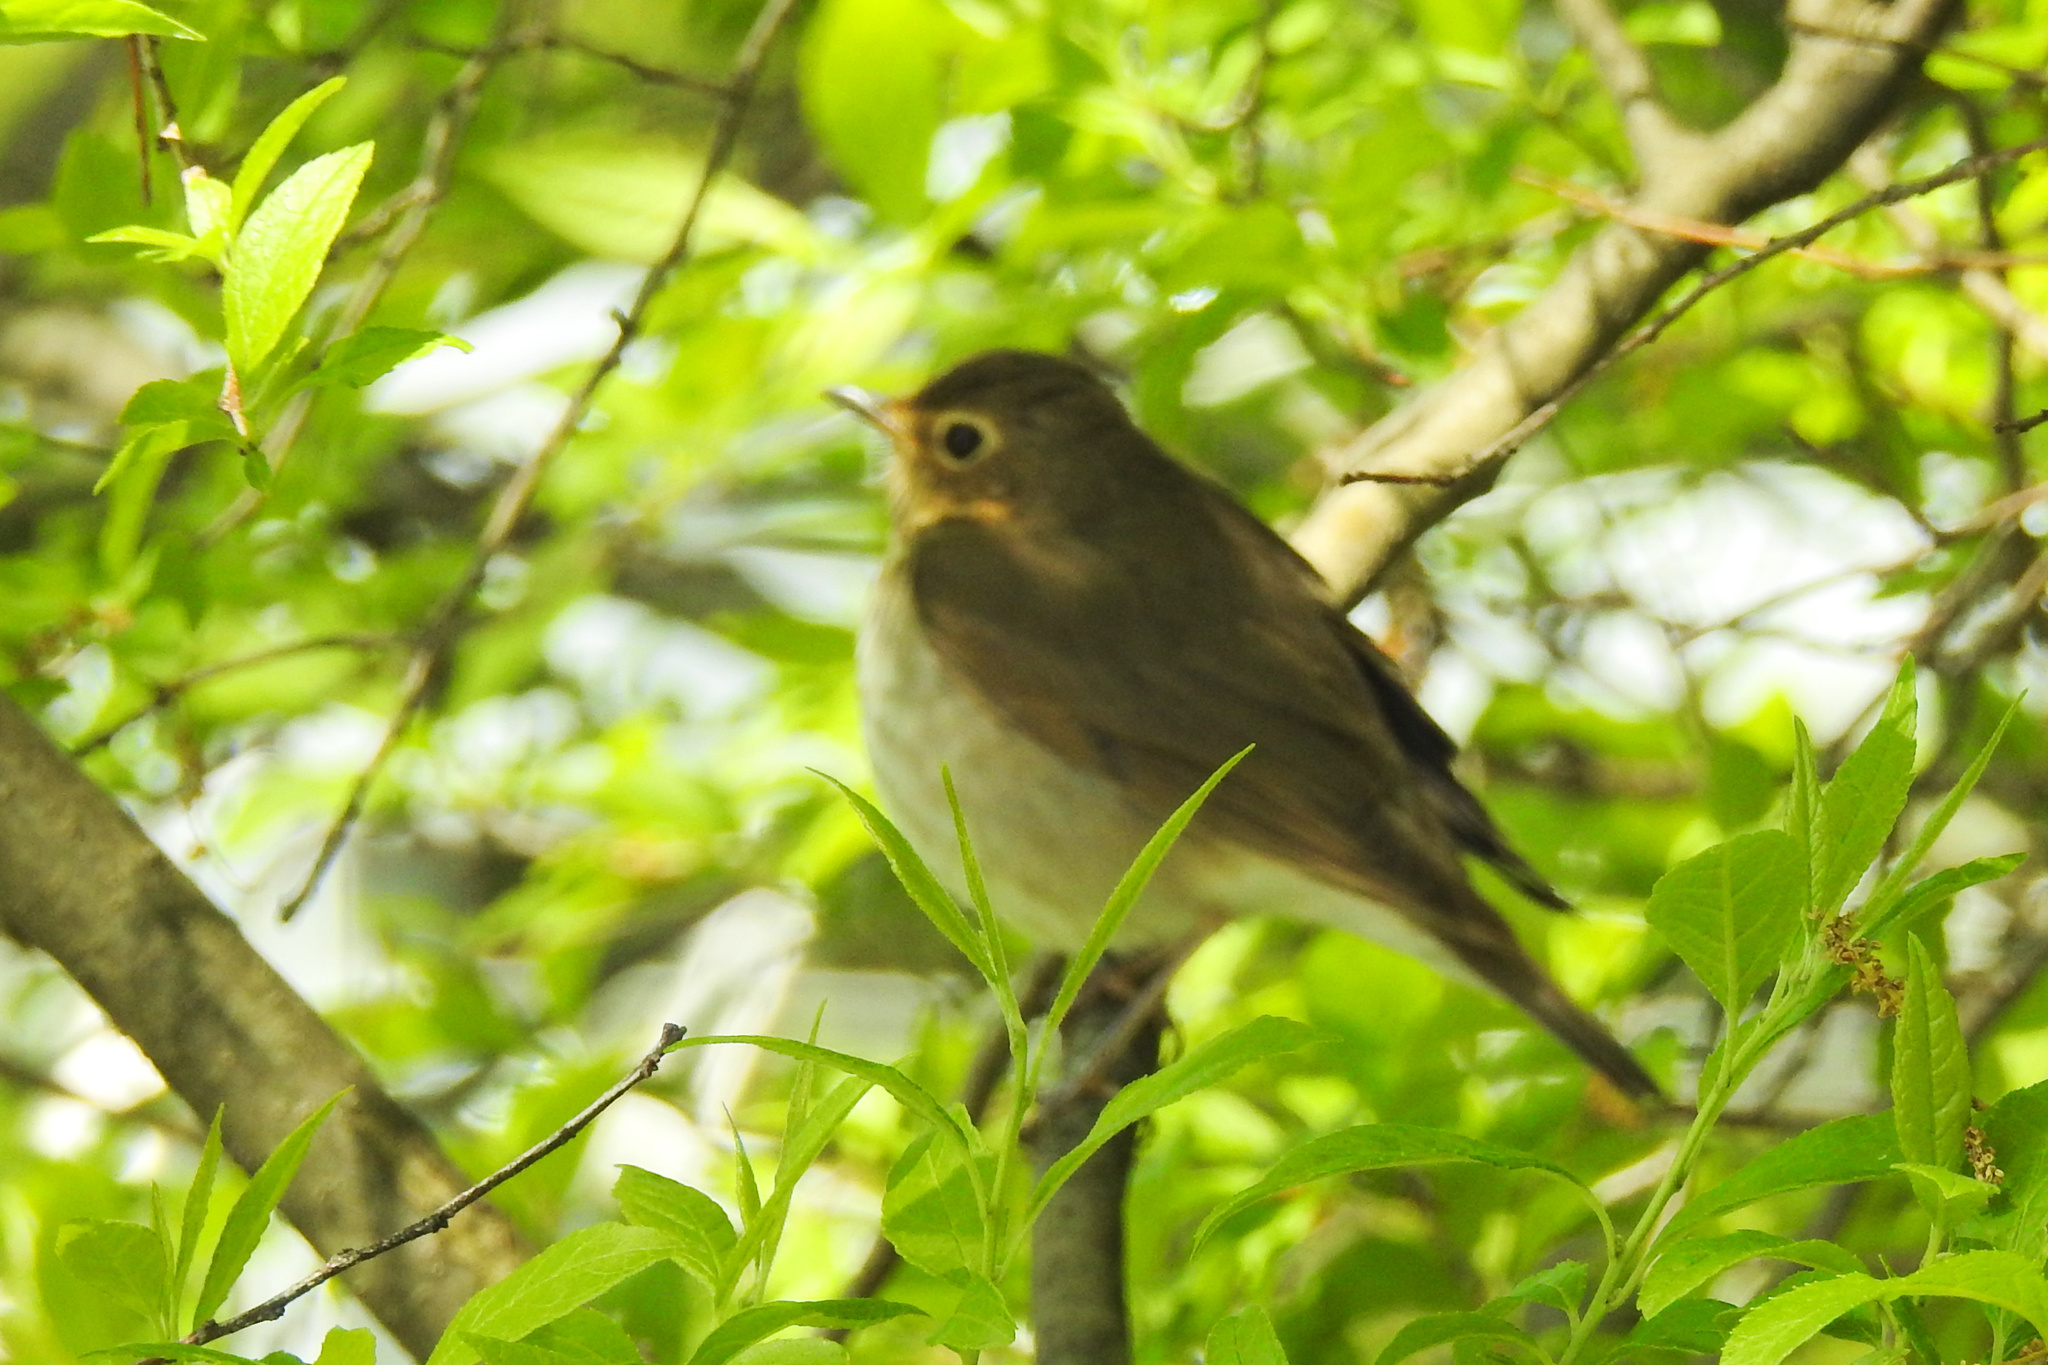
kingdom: Animalia
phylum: Chordata
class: Aves
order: Passeriformes
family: Turdidae
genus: Catharus
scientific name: Catharus ustulatus
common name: Swainson's thrush
